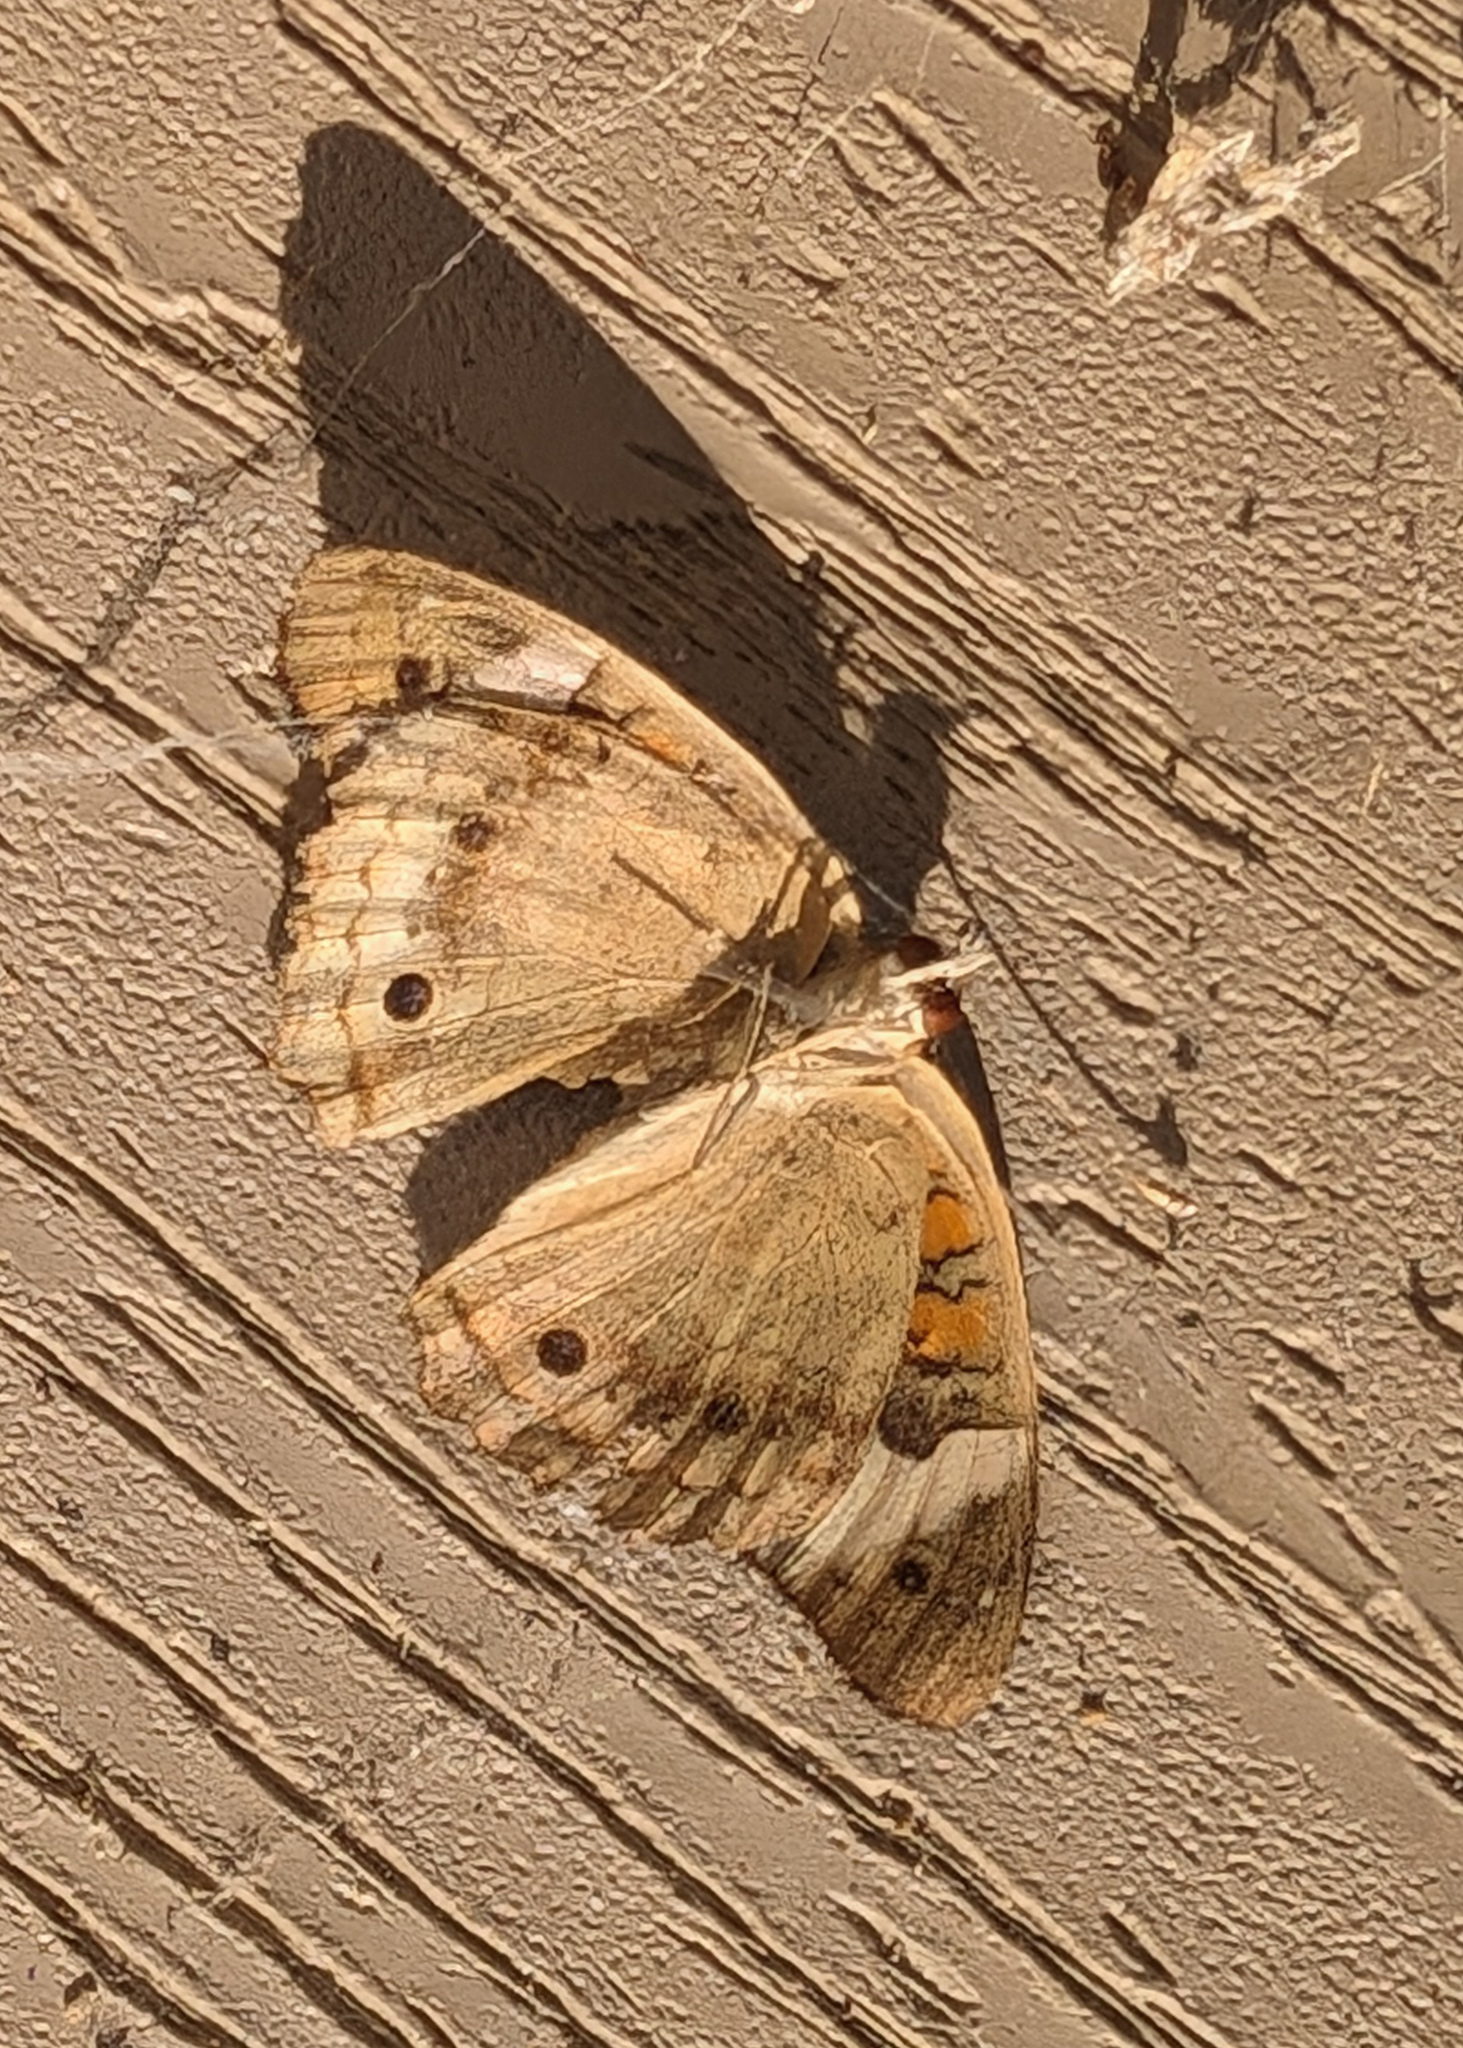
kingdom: Animalia
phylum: Arthropoda
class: Insecta
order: Lepidoptera
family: Nymphalidae
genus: Junonia
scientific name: Junonia coenia
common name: Common buckeye
